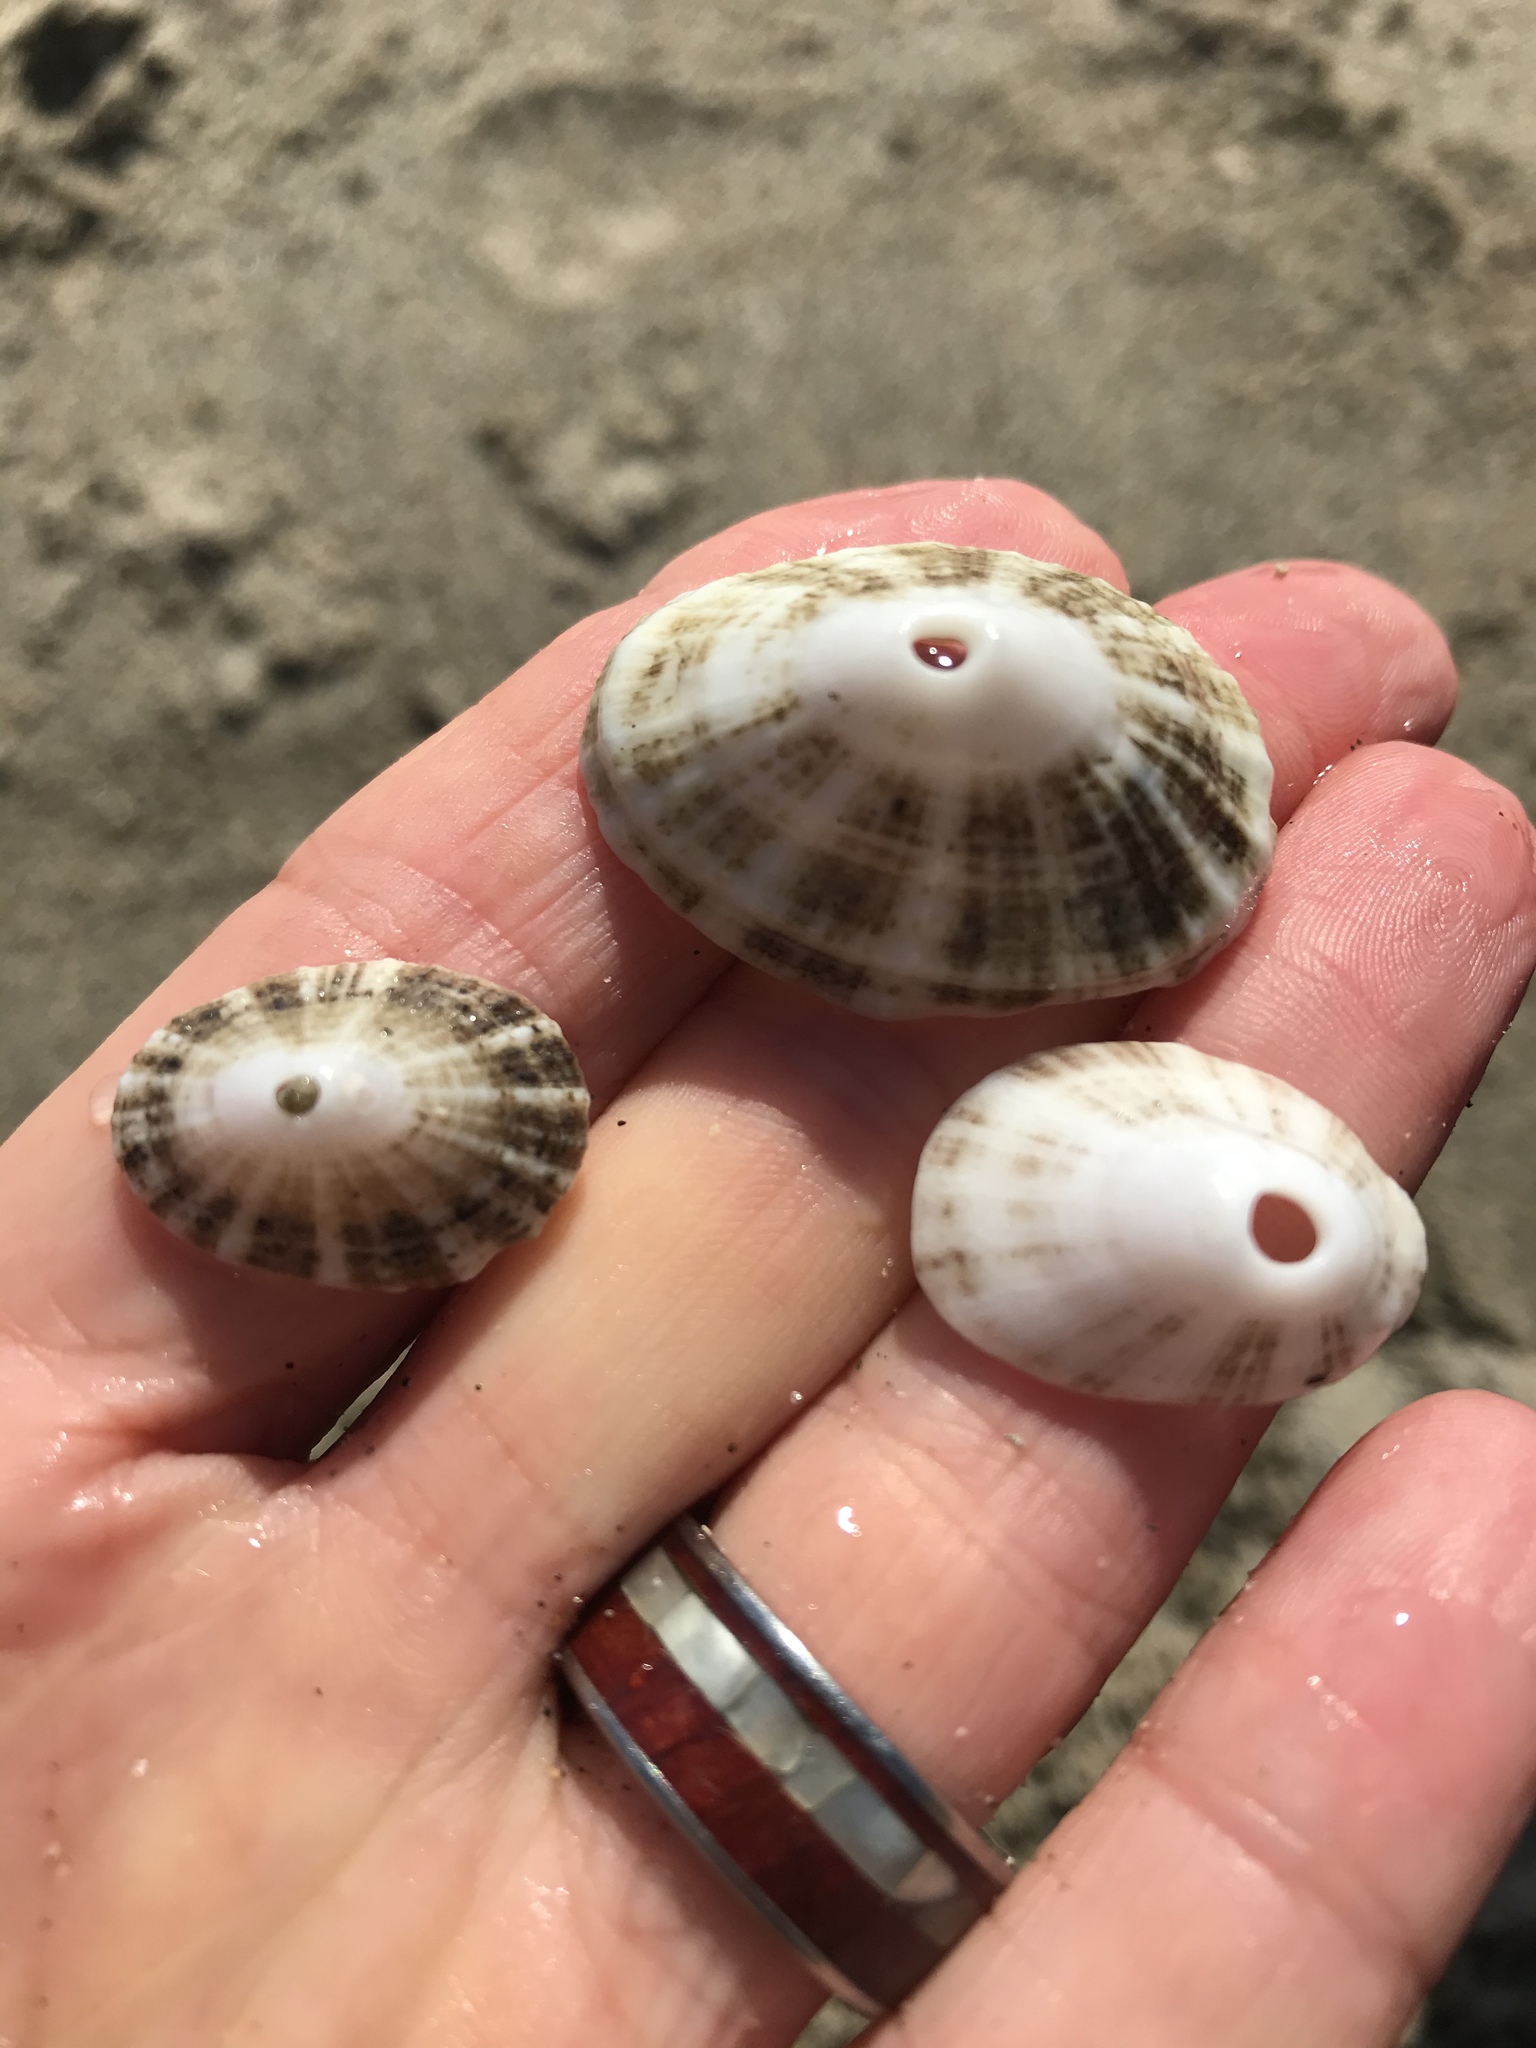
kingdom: Animalia
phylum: Mollusca
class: Gastropoda
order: Lepetellida
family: Fissurellidae
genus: Diodora
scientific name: Diodora aspera
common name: Rough keyhole limpet
